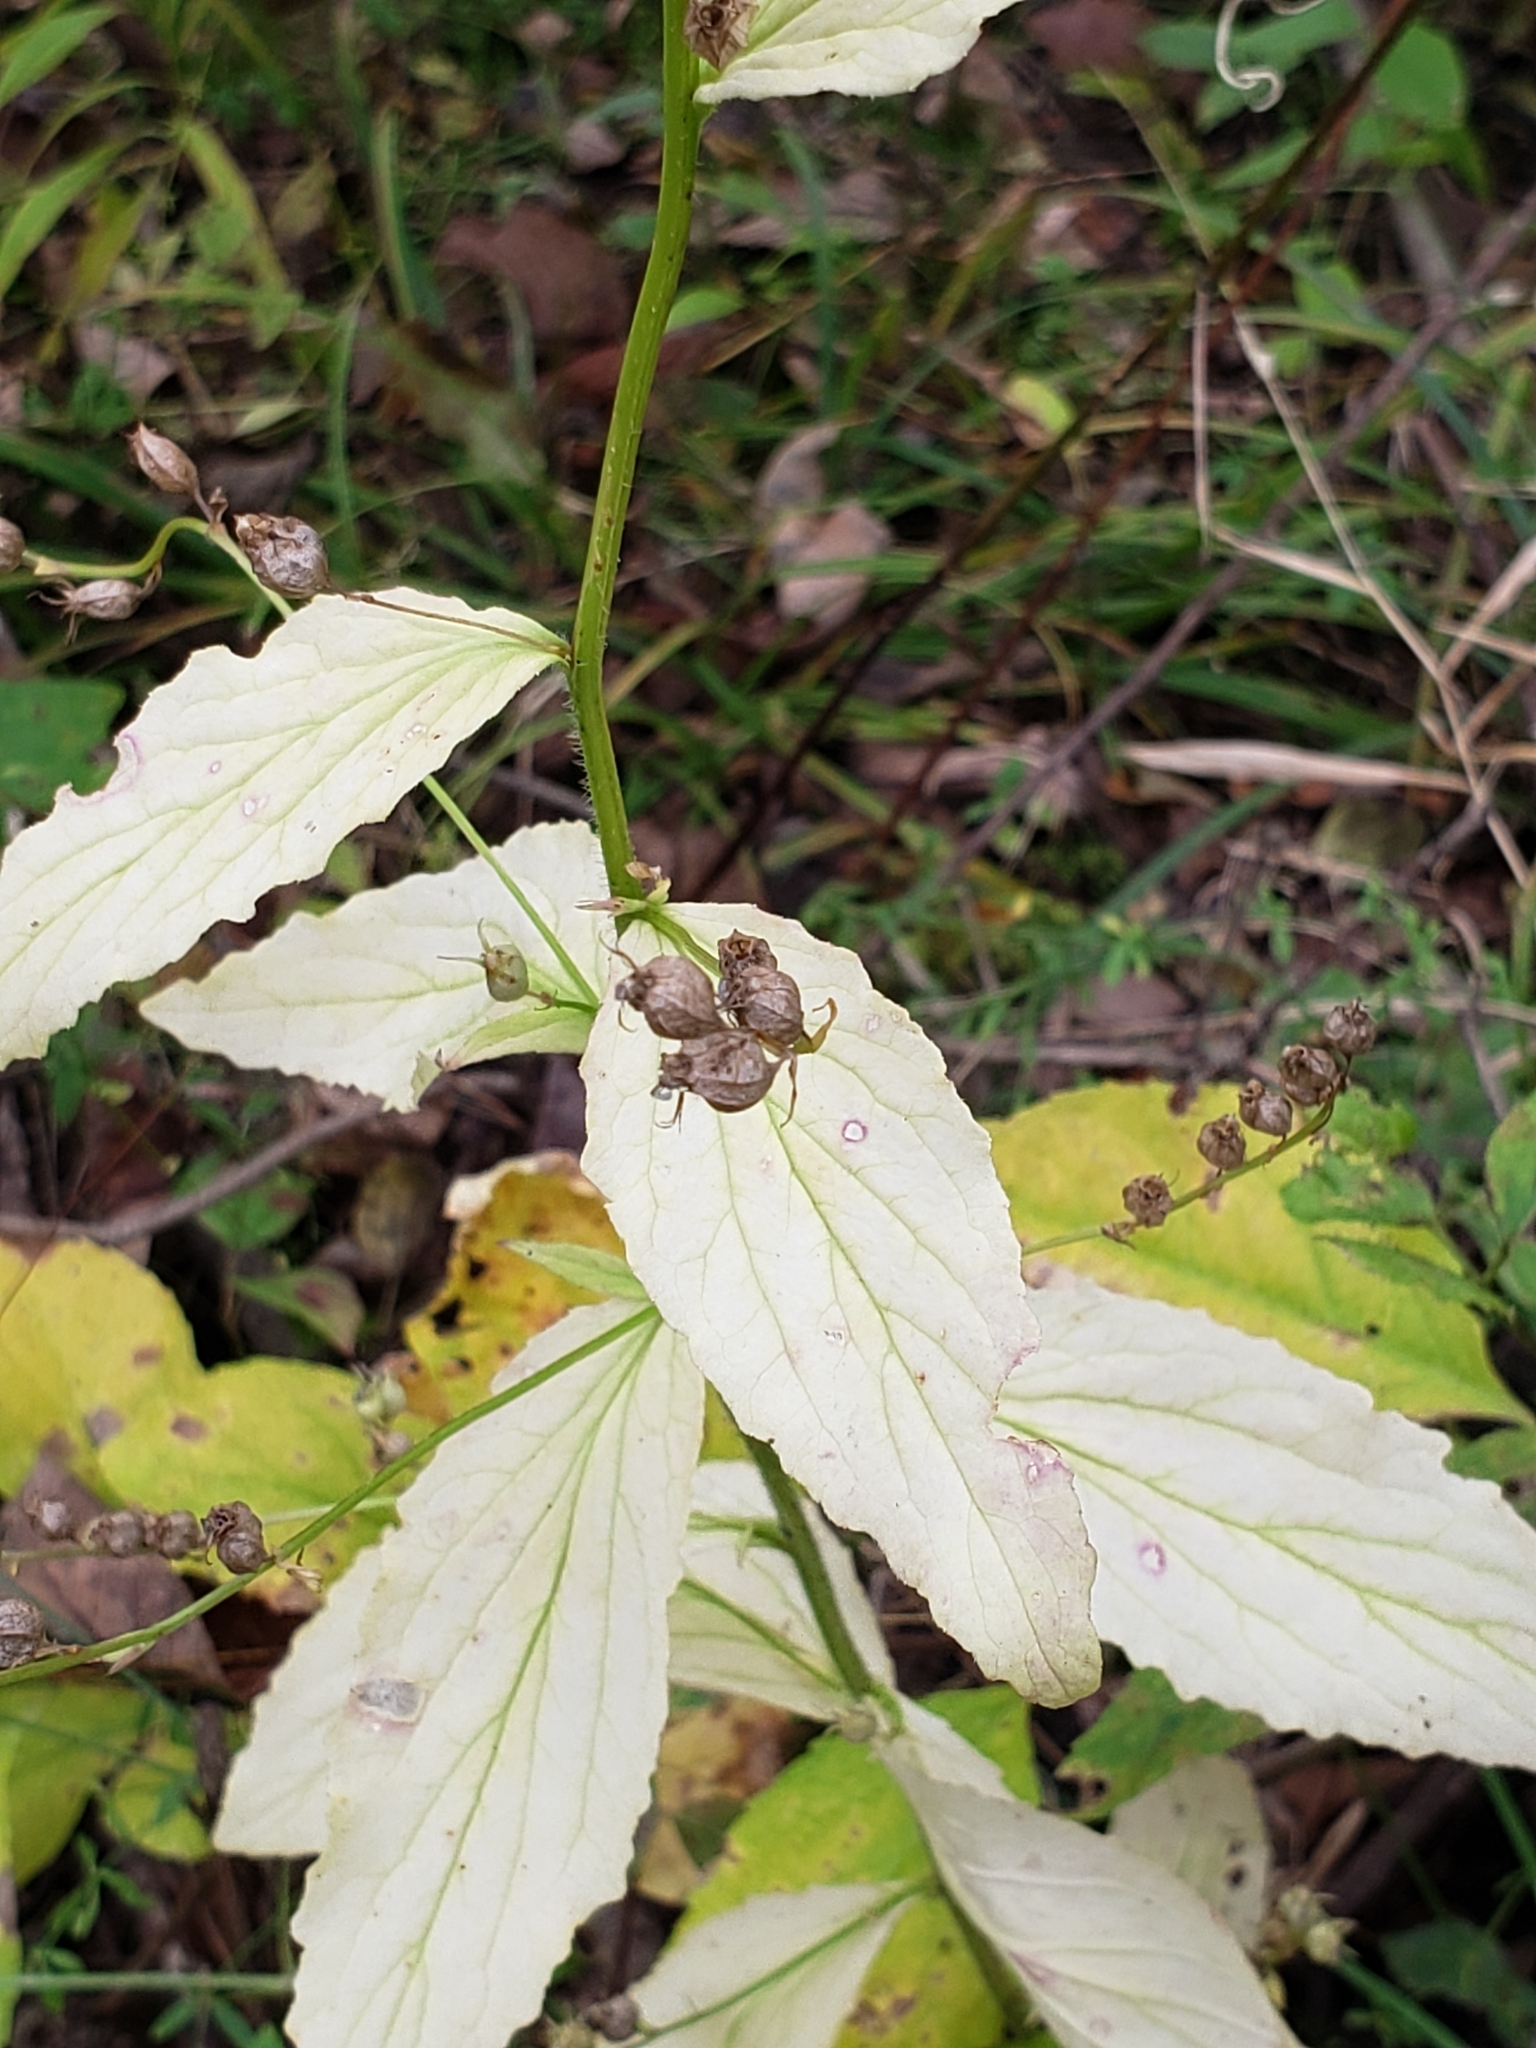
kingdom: Plantae
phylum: Tracheophyta
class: Magnoliopsida
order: Asterales
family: Campanulaceae
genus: Lobelia
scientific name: Lobelia inflata
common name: Indian tobacco
